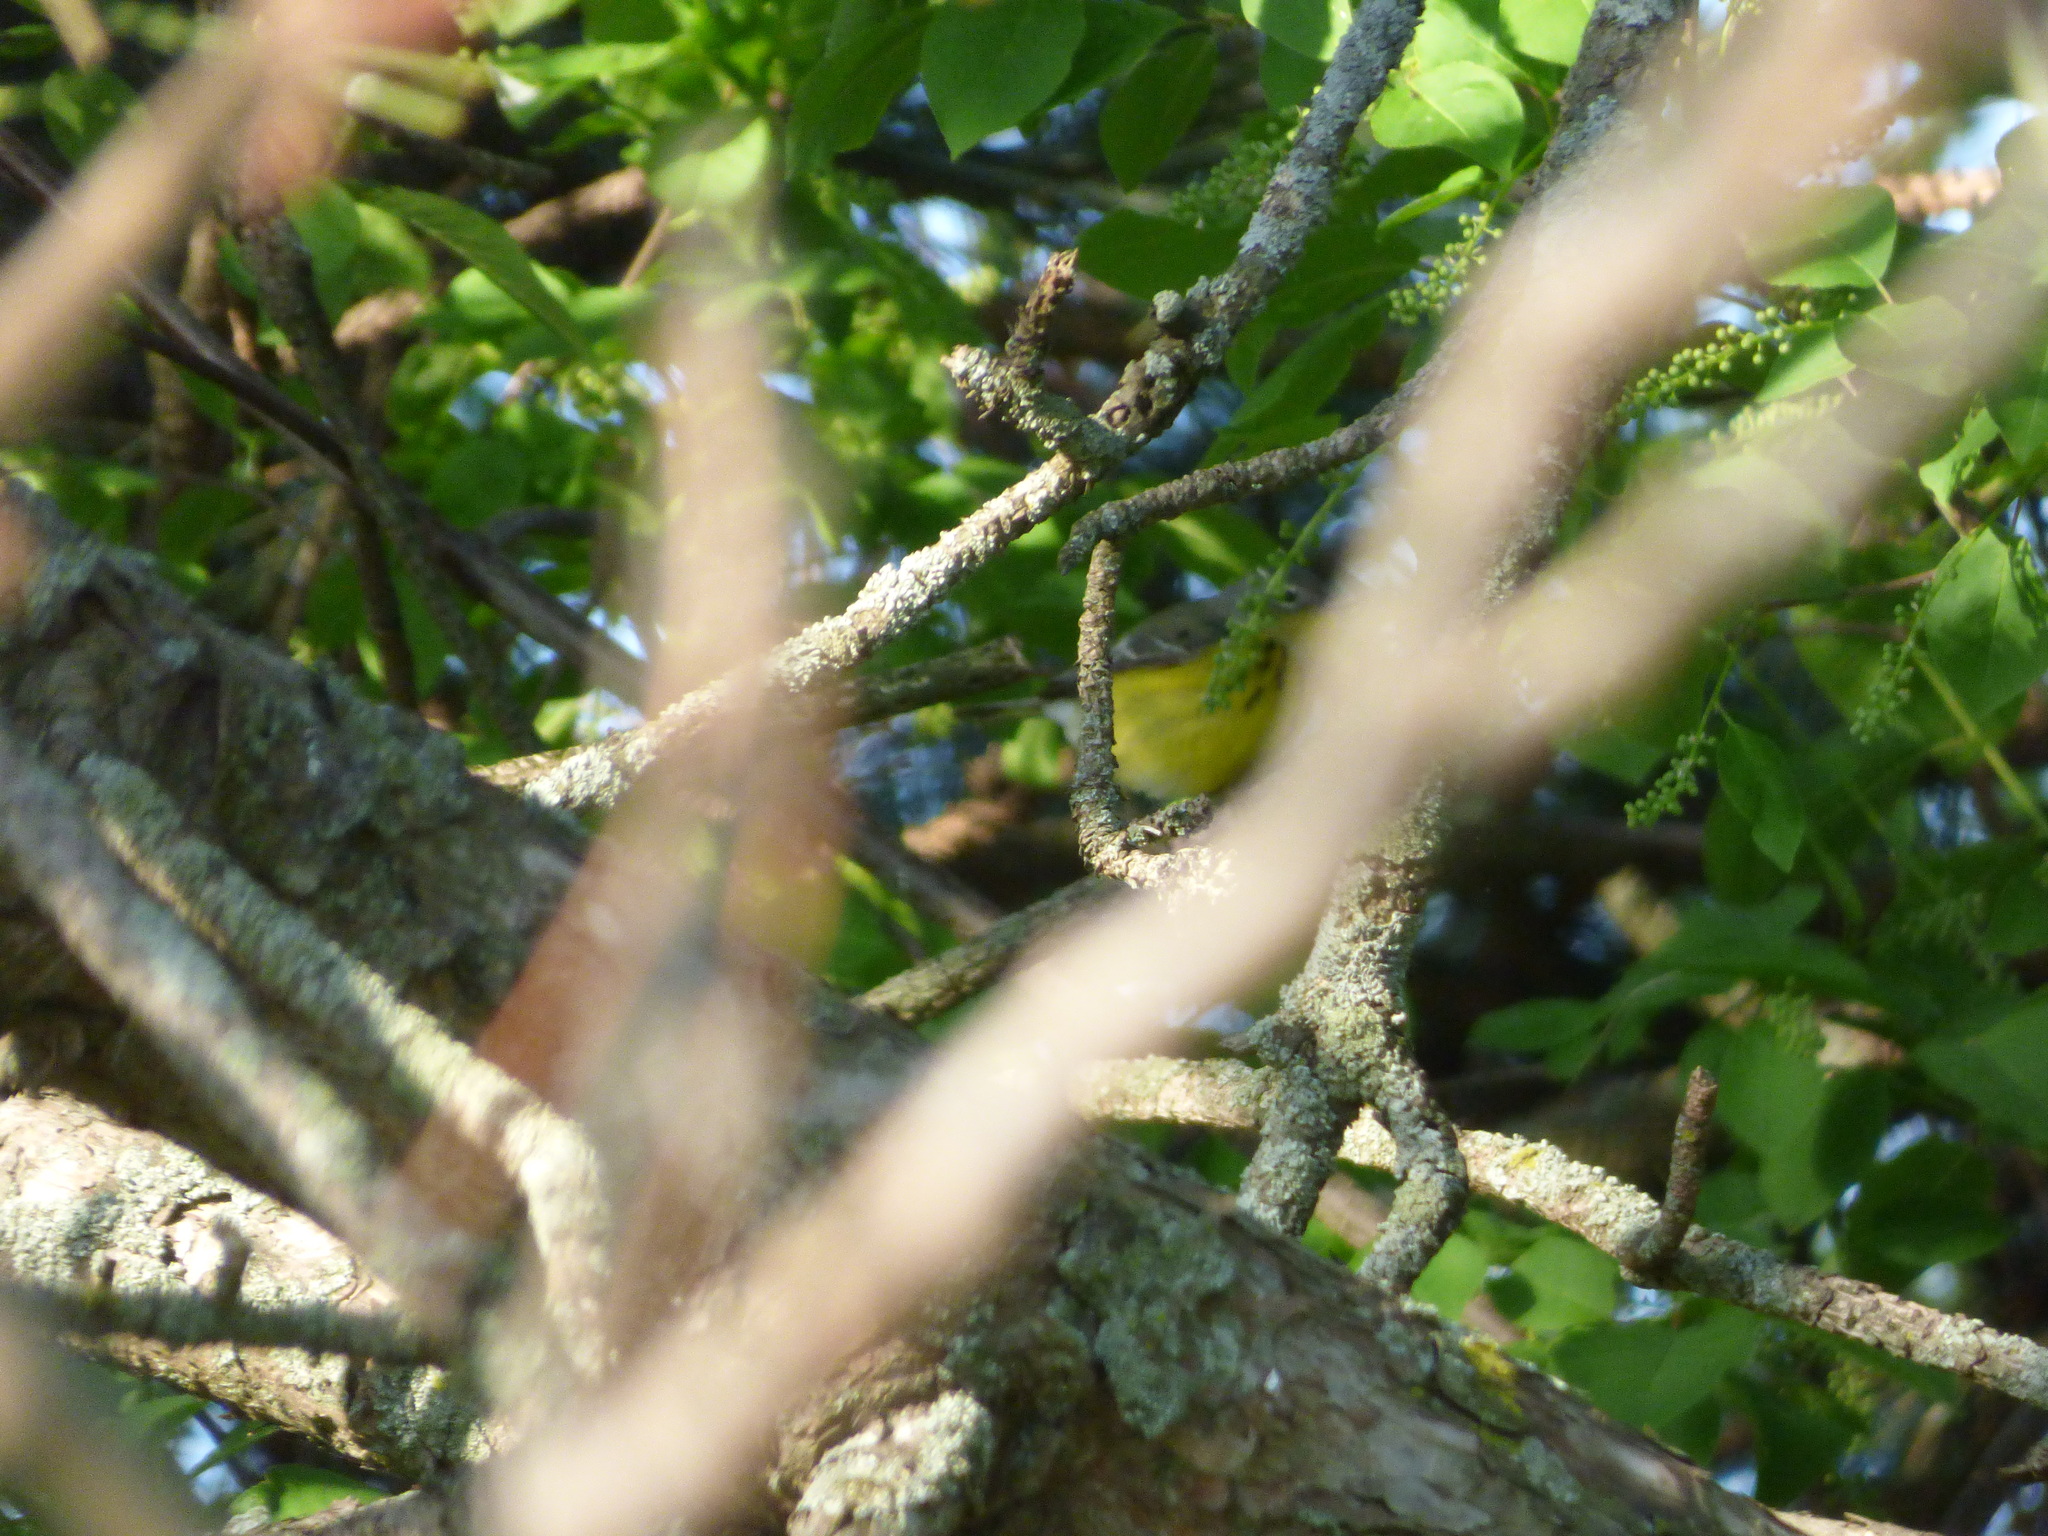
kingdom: Animalia
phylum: Chordata
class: Aves
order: Passeriformes
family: Parulidae
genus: Setophaga
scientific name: Setophaga magnolia
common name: Magnolia warbler
